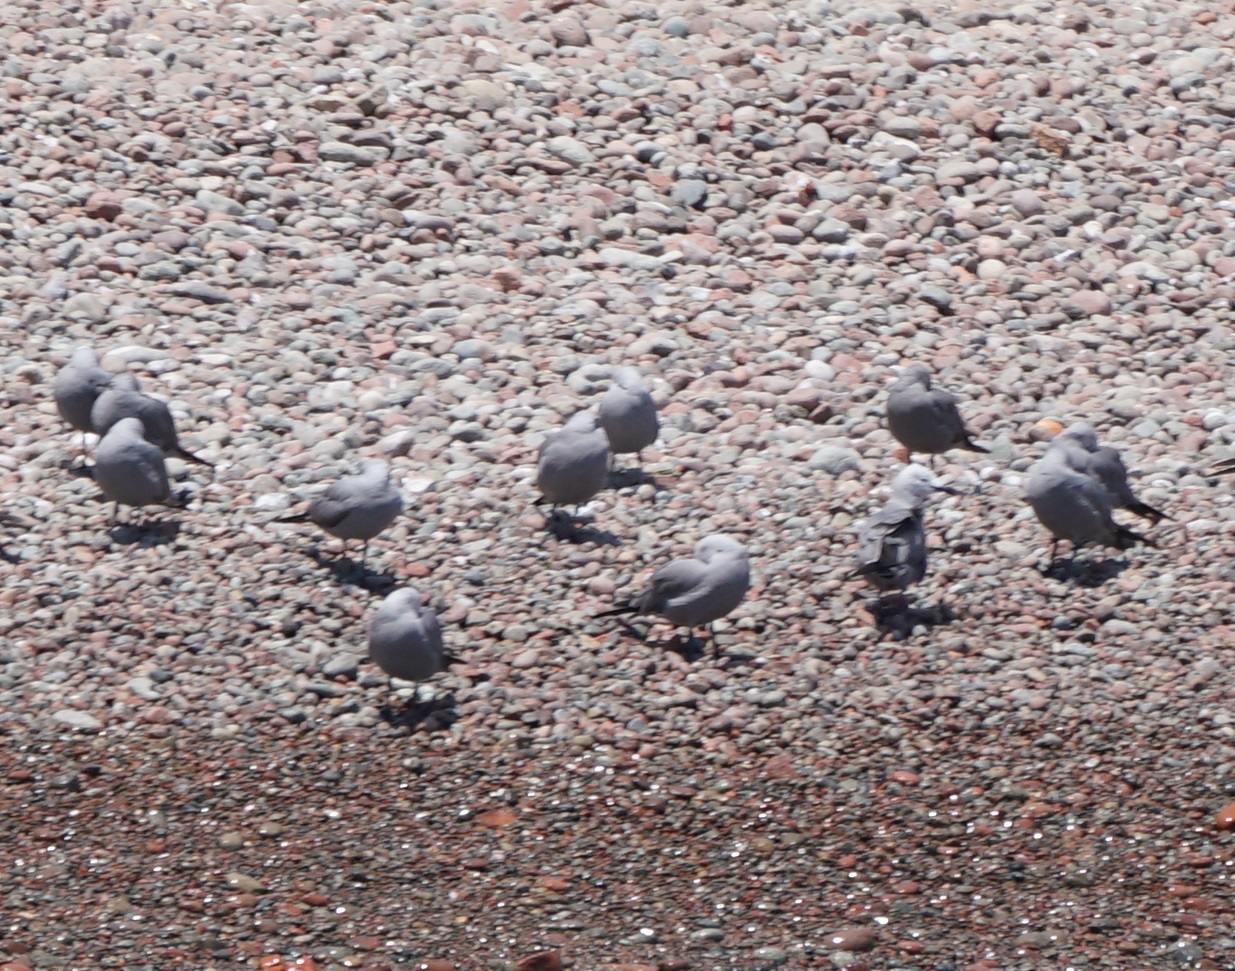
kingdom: Animalia
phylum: Chordata
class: Aves
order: Charadriiformes
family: Laridae
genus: Leucophaeus
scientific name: Leucophaeus modestus
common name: Gray gull
